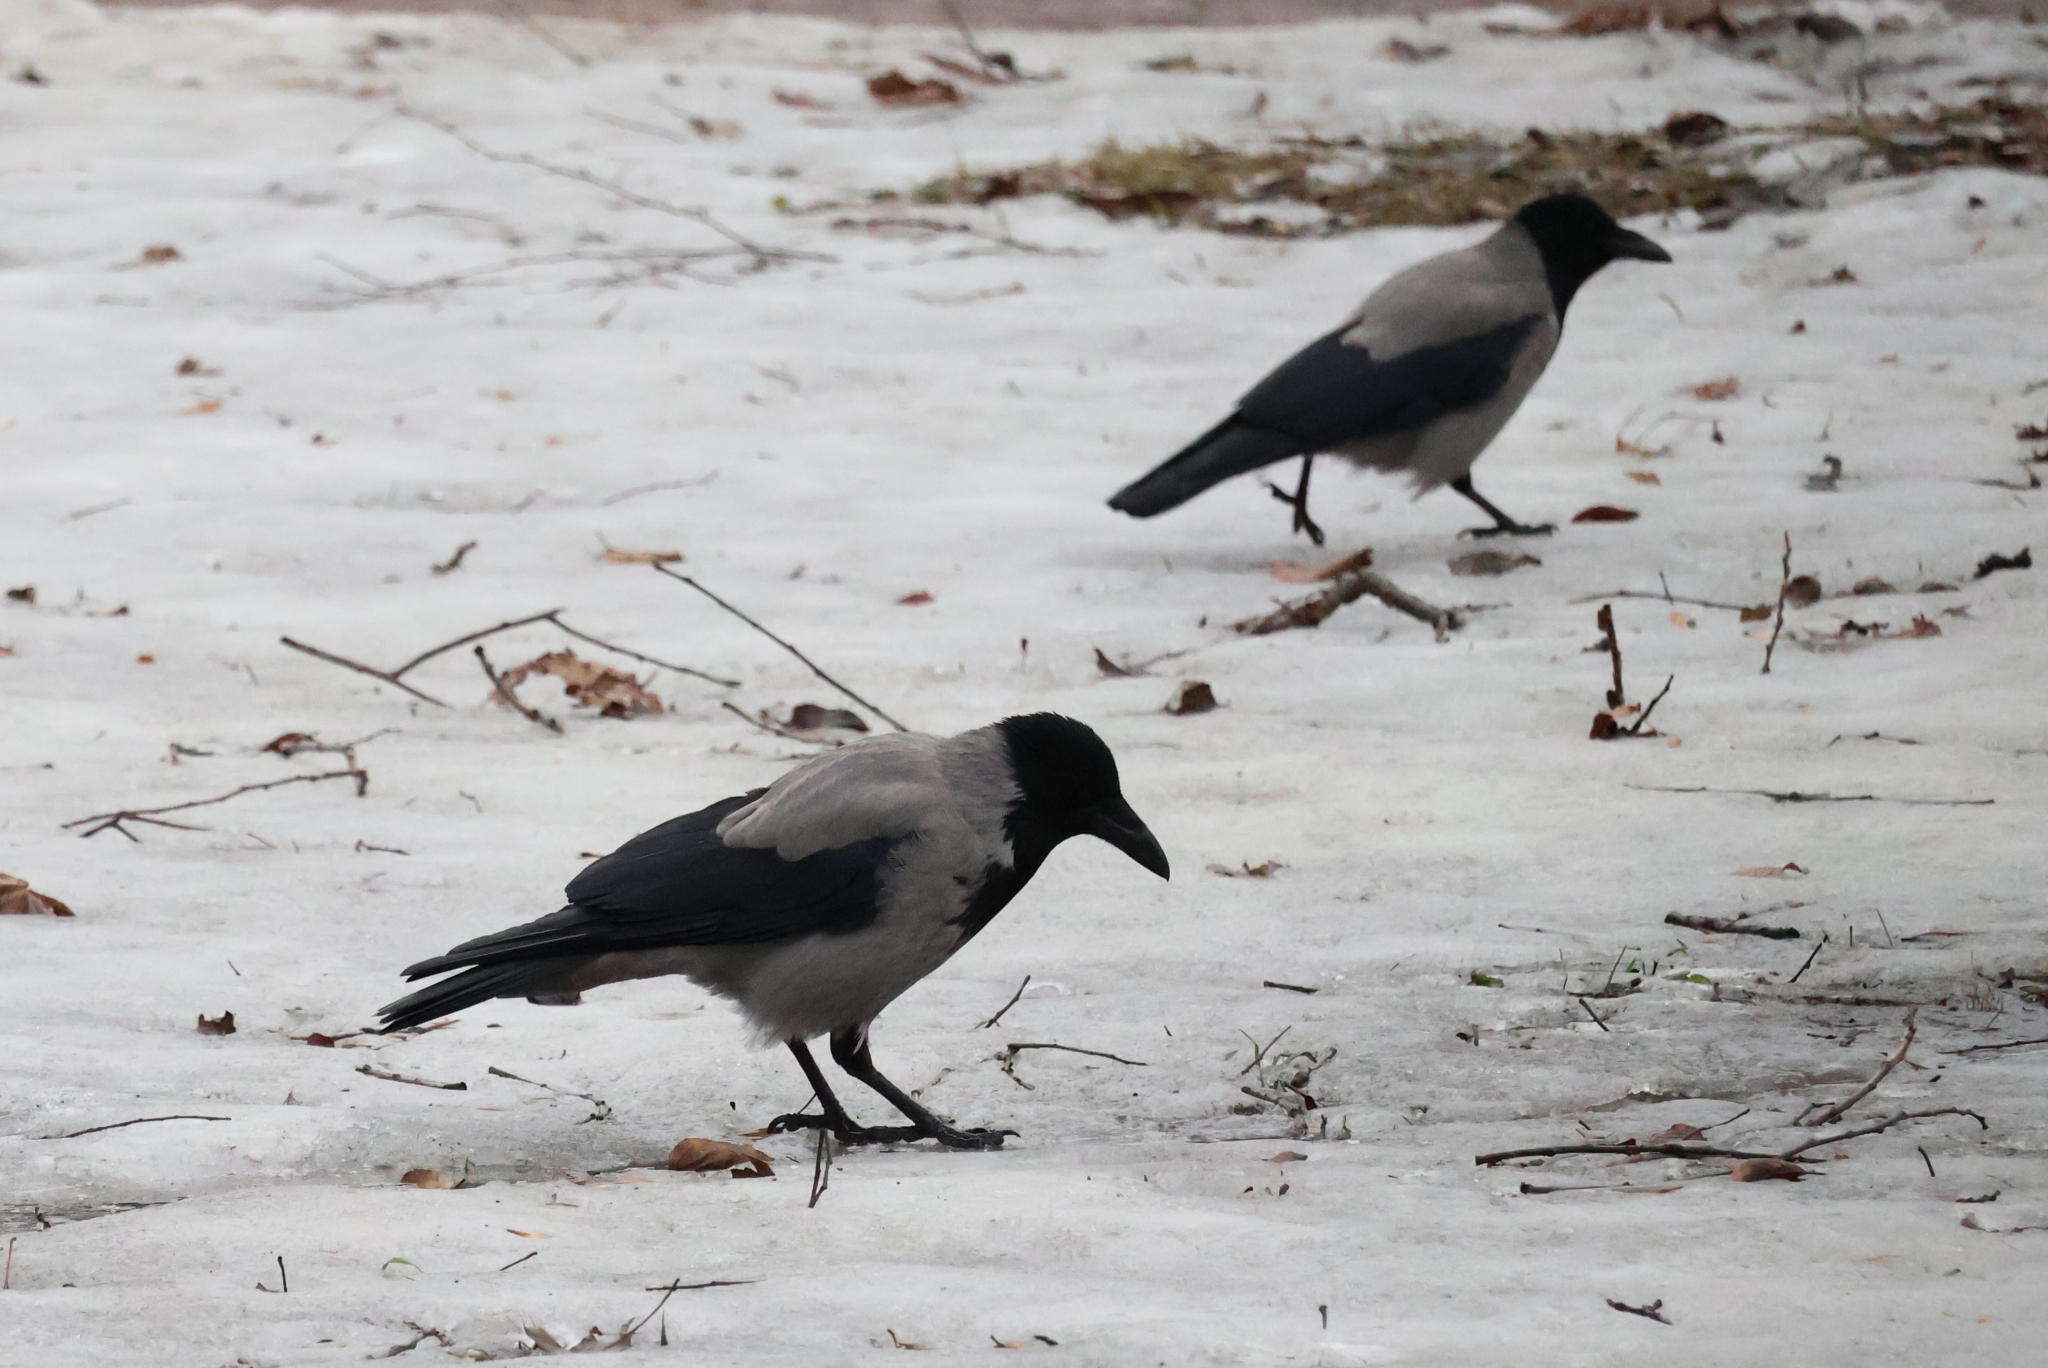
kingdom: Animalia
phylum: Chordata
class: Aves
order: Passeriformes
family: Corvidae
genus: Corvus
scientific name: Corvus cornix
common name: Hooded crow
